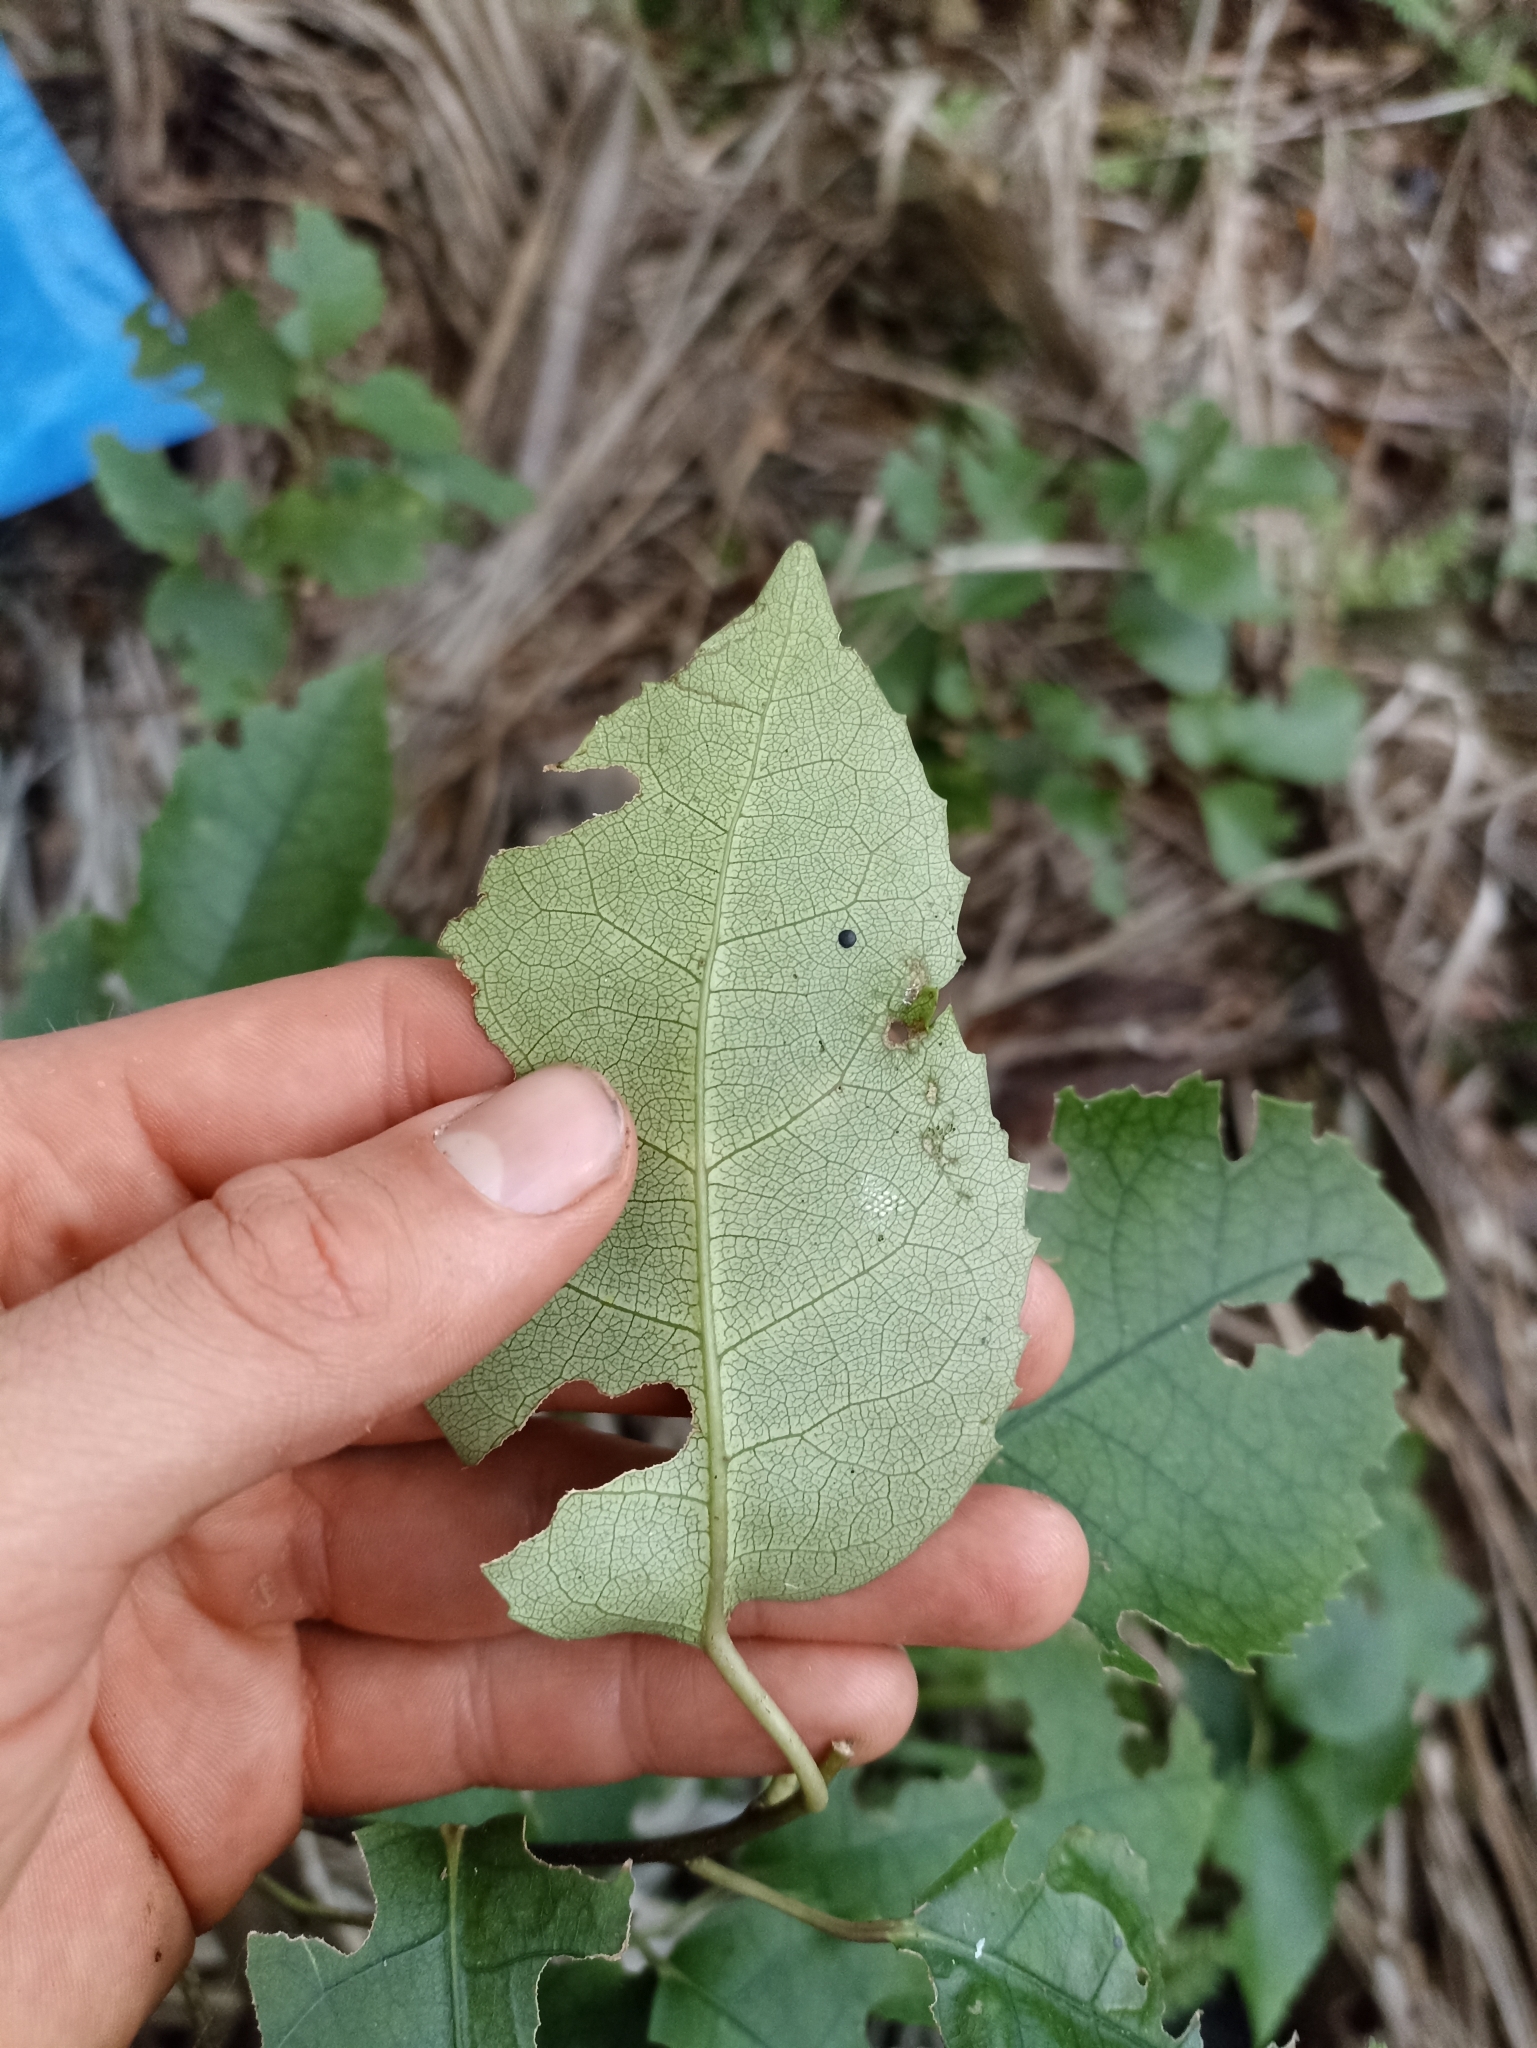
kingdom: Plantae
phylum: Tracheophyta
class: Magnoliopsida
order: Malvales
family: Malvaceae
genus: Hoheria
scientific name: Hoheria populnea
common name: Lacebark
